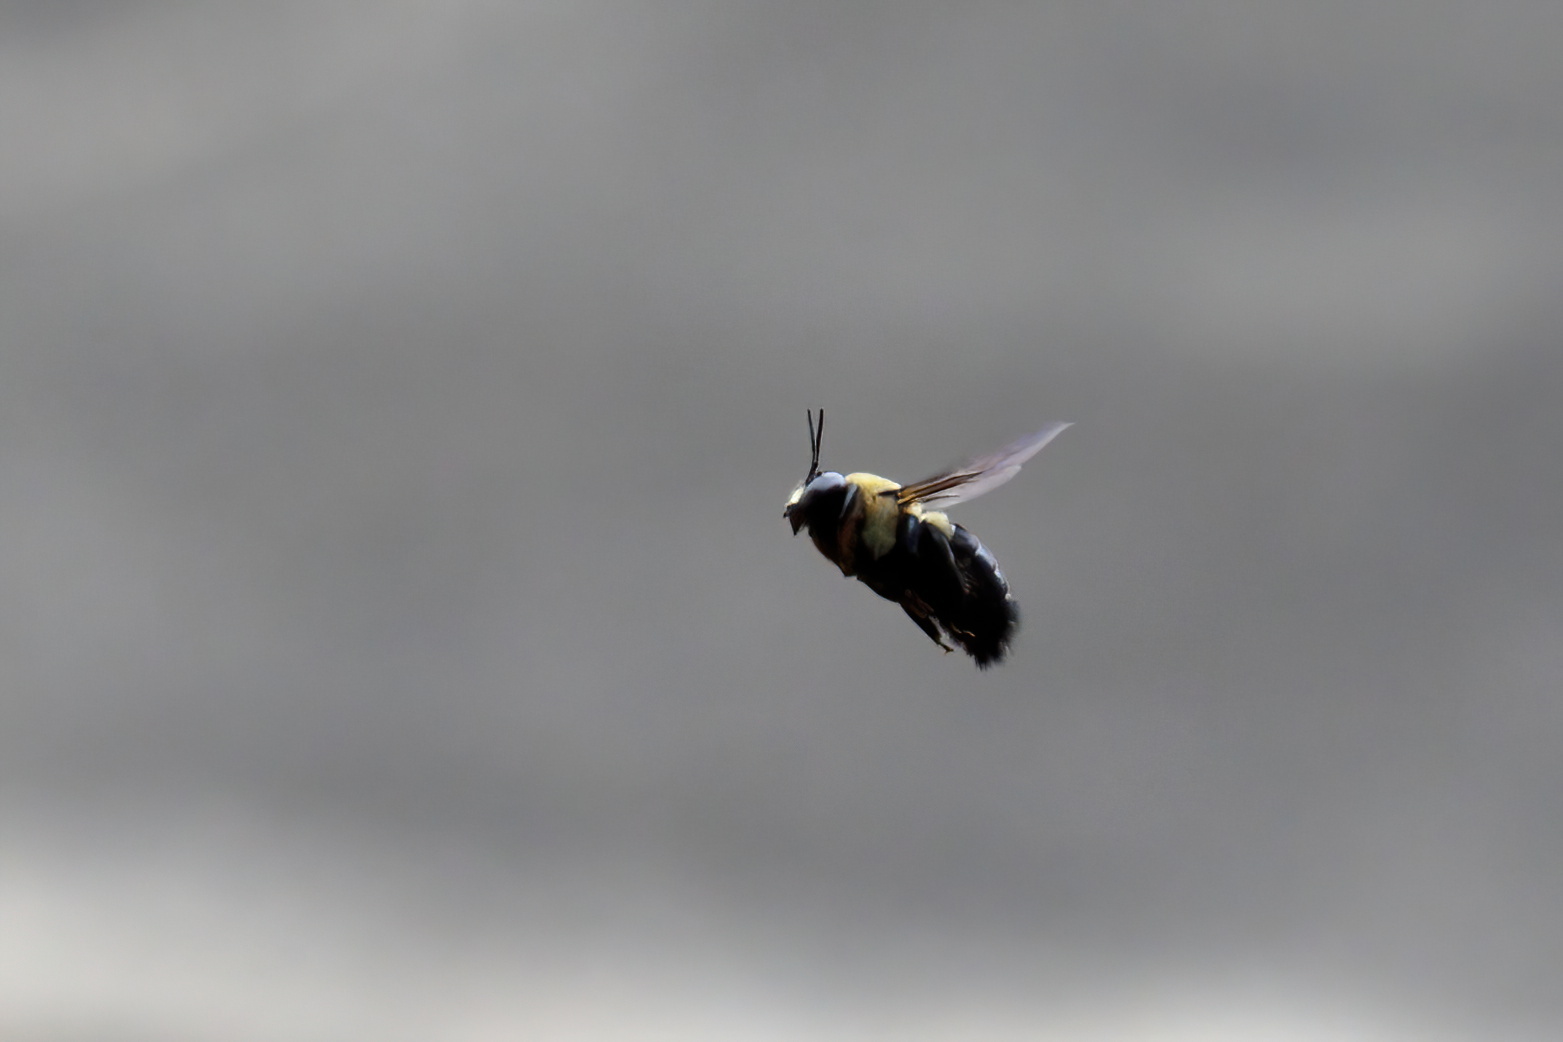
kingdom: Animalia
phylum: Arthropoda
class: Insecta
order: Hymenoptera
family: Apidae
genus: Xylocopa
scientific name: Xylocopa virginica
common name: Carpenter bee
